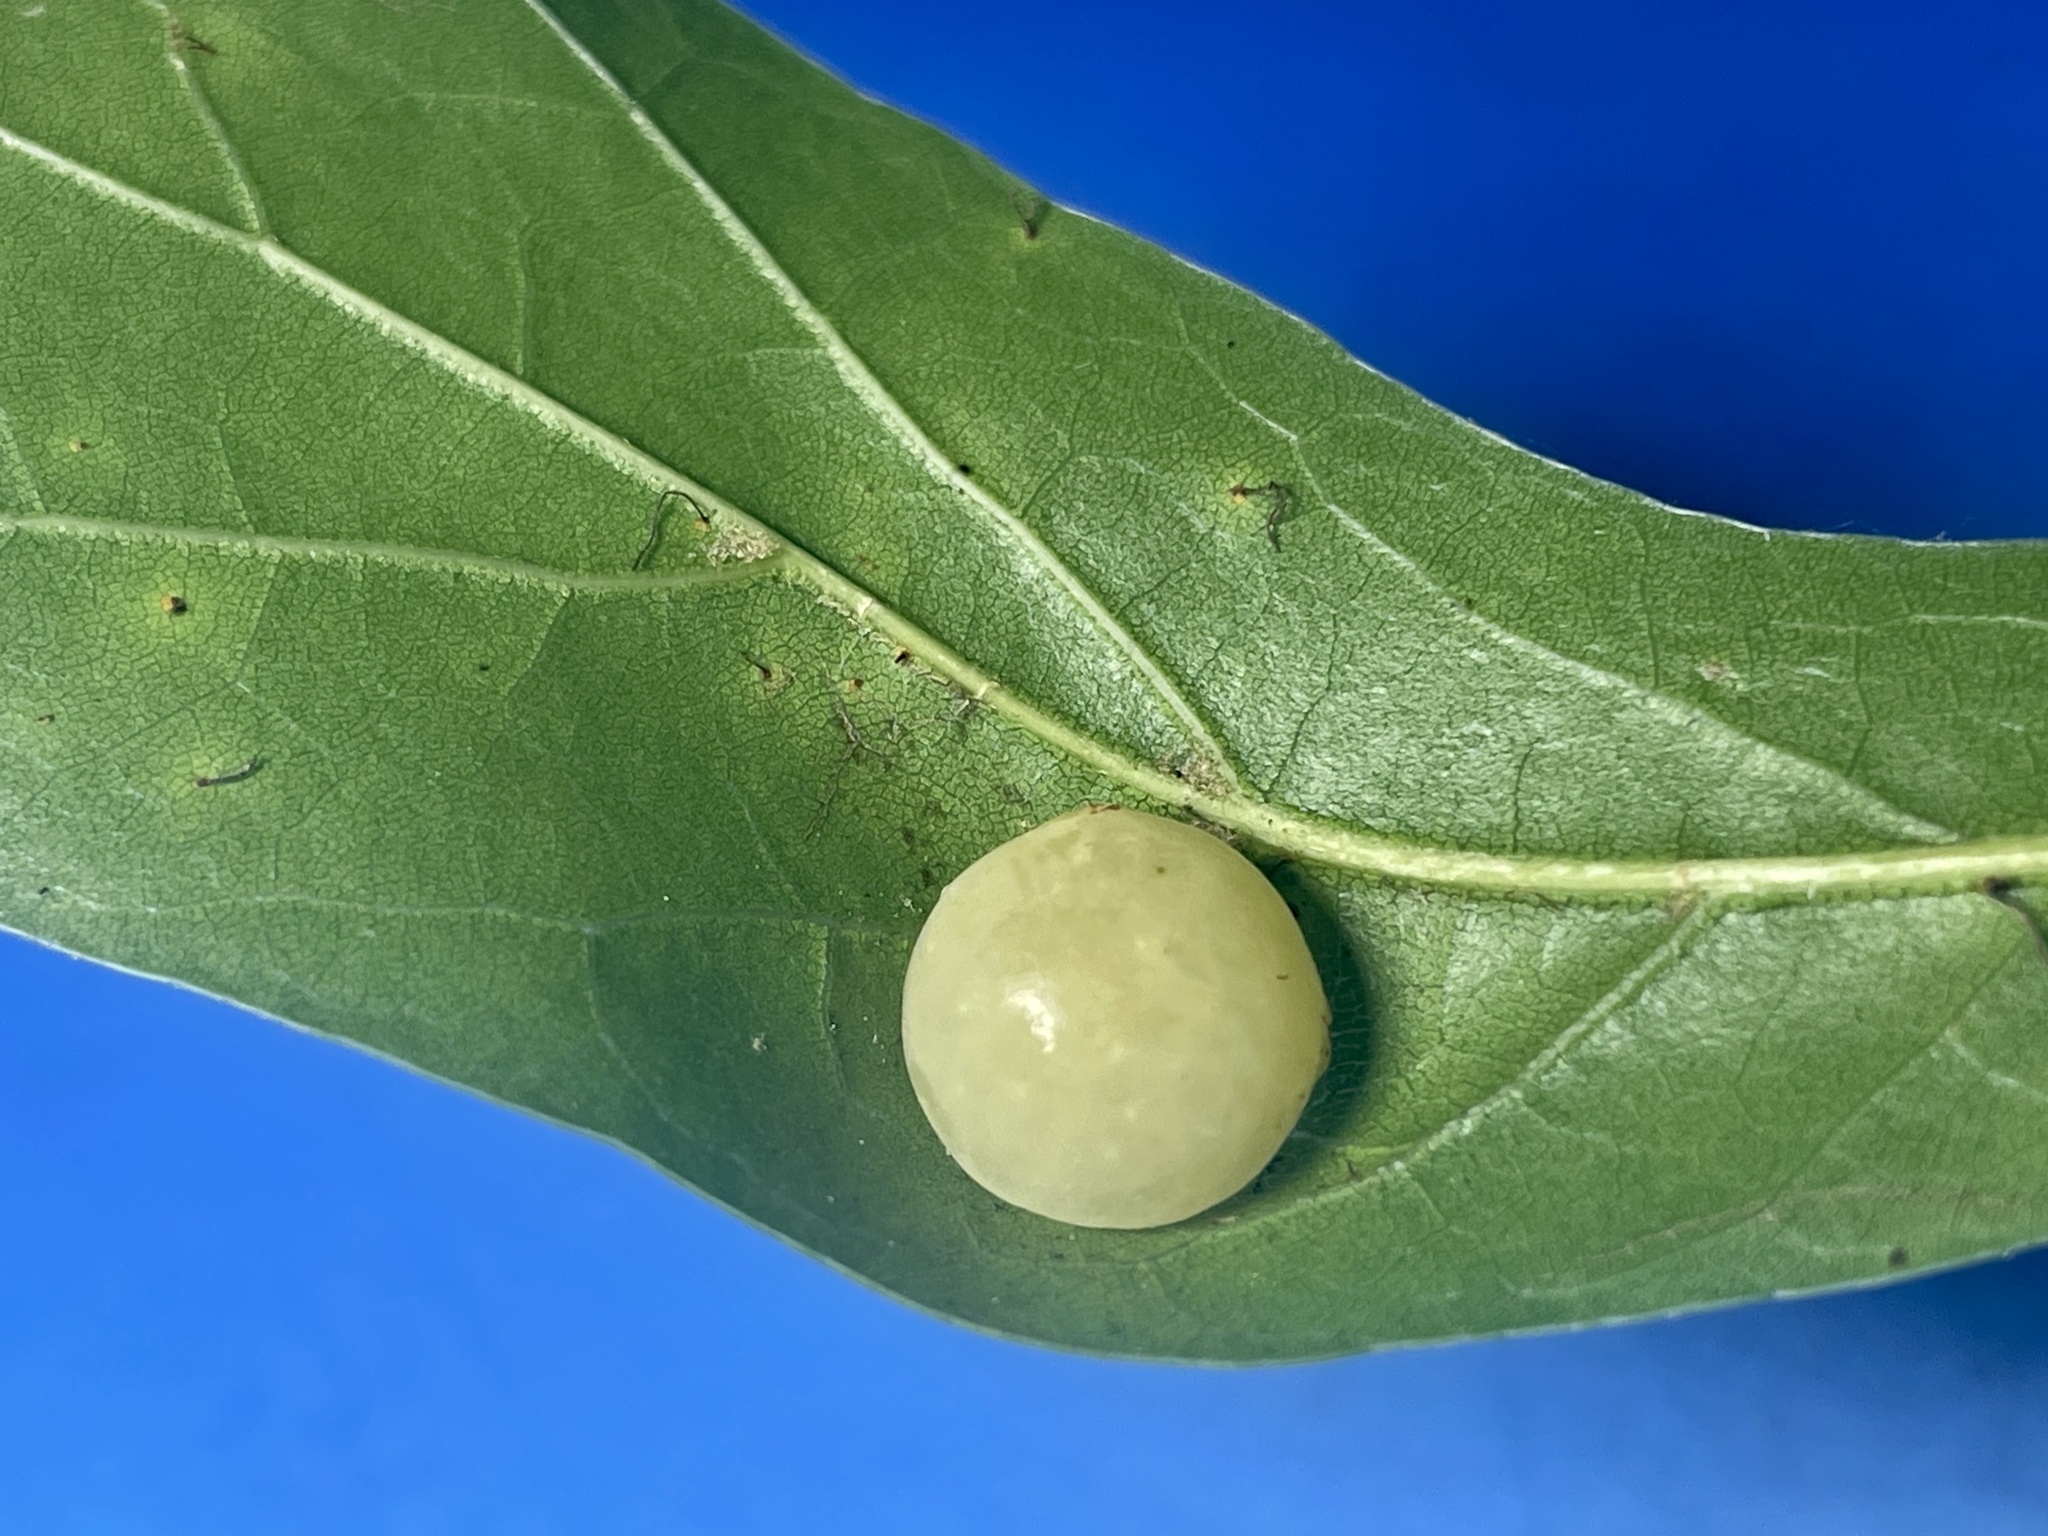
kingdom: Animalia
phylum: Arthropoda
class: Insecta
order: Hymenoptera
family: Cynipidae
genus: Amphibolips
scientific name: Amphibolips
